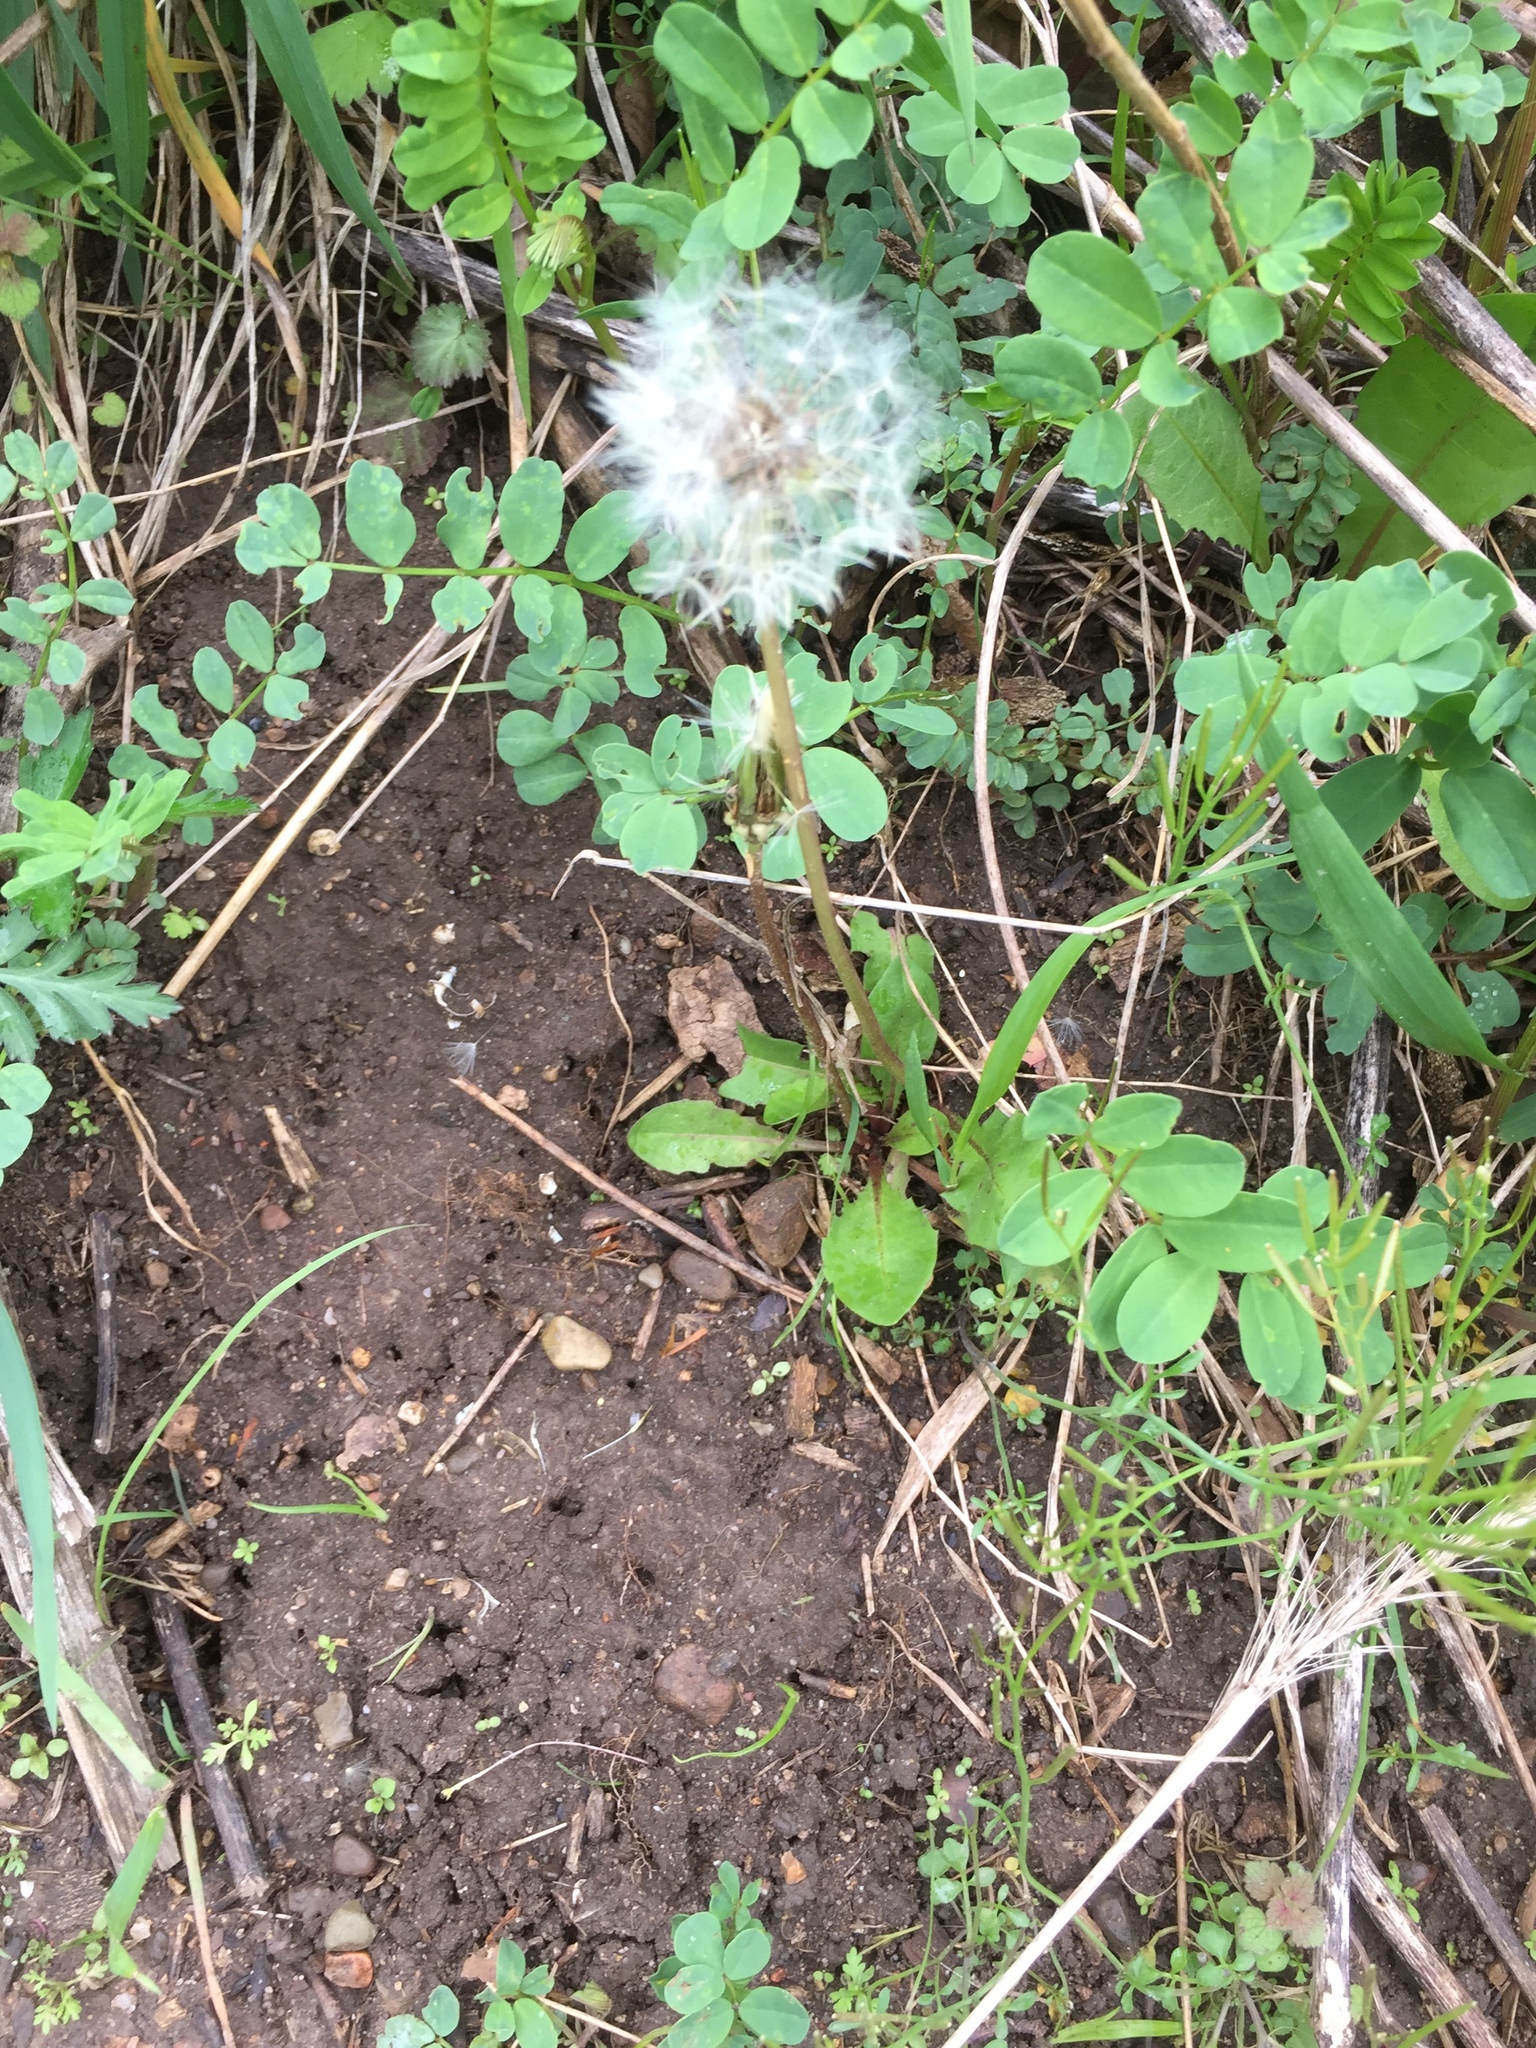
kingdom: Plantae
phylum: Tracheophyta
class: Magnoliopsida
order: Asterales
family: Asteraceae
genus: Taraxacum
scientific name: Taraxacum officinale
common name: Common dandelion
